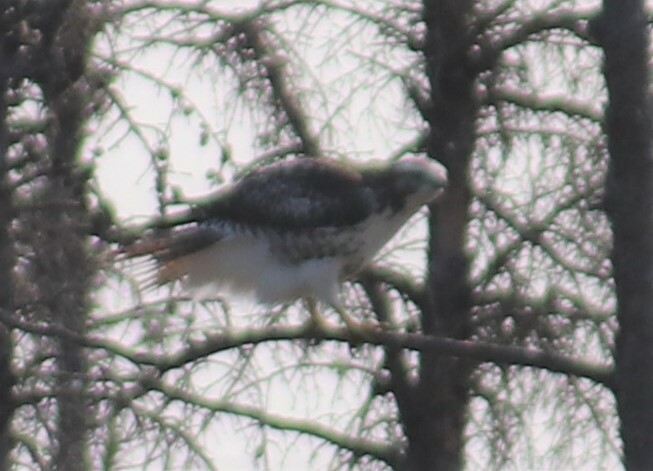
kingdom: Animalia
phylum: Chordata
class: Aves
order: Accipitriformes
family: Accipitridae
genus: Buteo
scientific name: Buteo jamaicensis
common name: Red-tailed hawk
